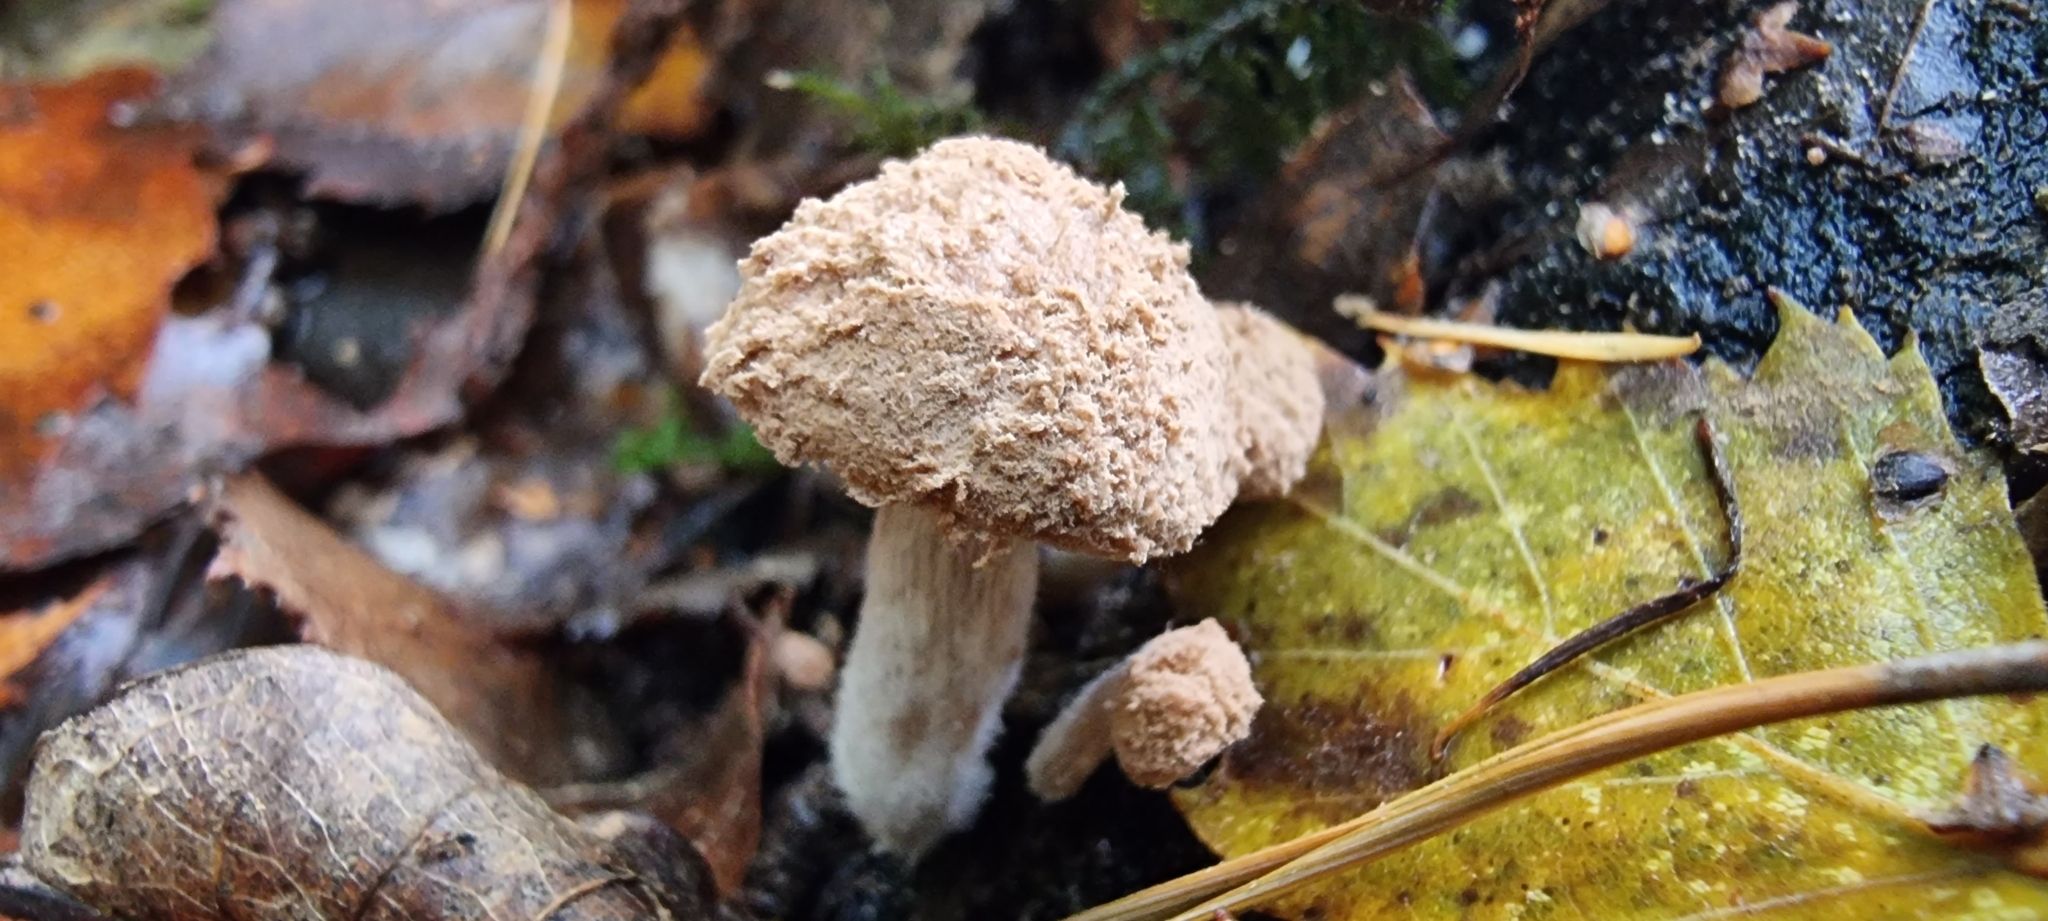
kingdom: Fungi
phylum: Basidiomycota
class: Agaricomycetes
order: Agaricales
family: Lyophyllaceae
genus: Asterophora
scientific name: Asterophora lycoperdoides
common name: Pick-a-back toadstool
